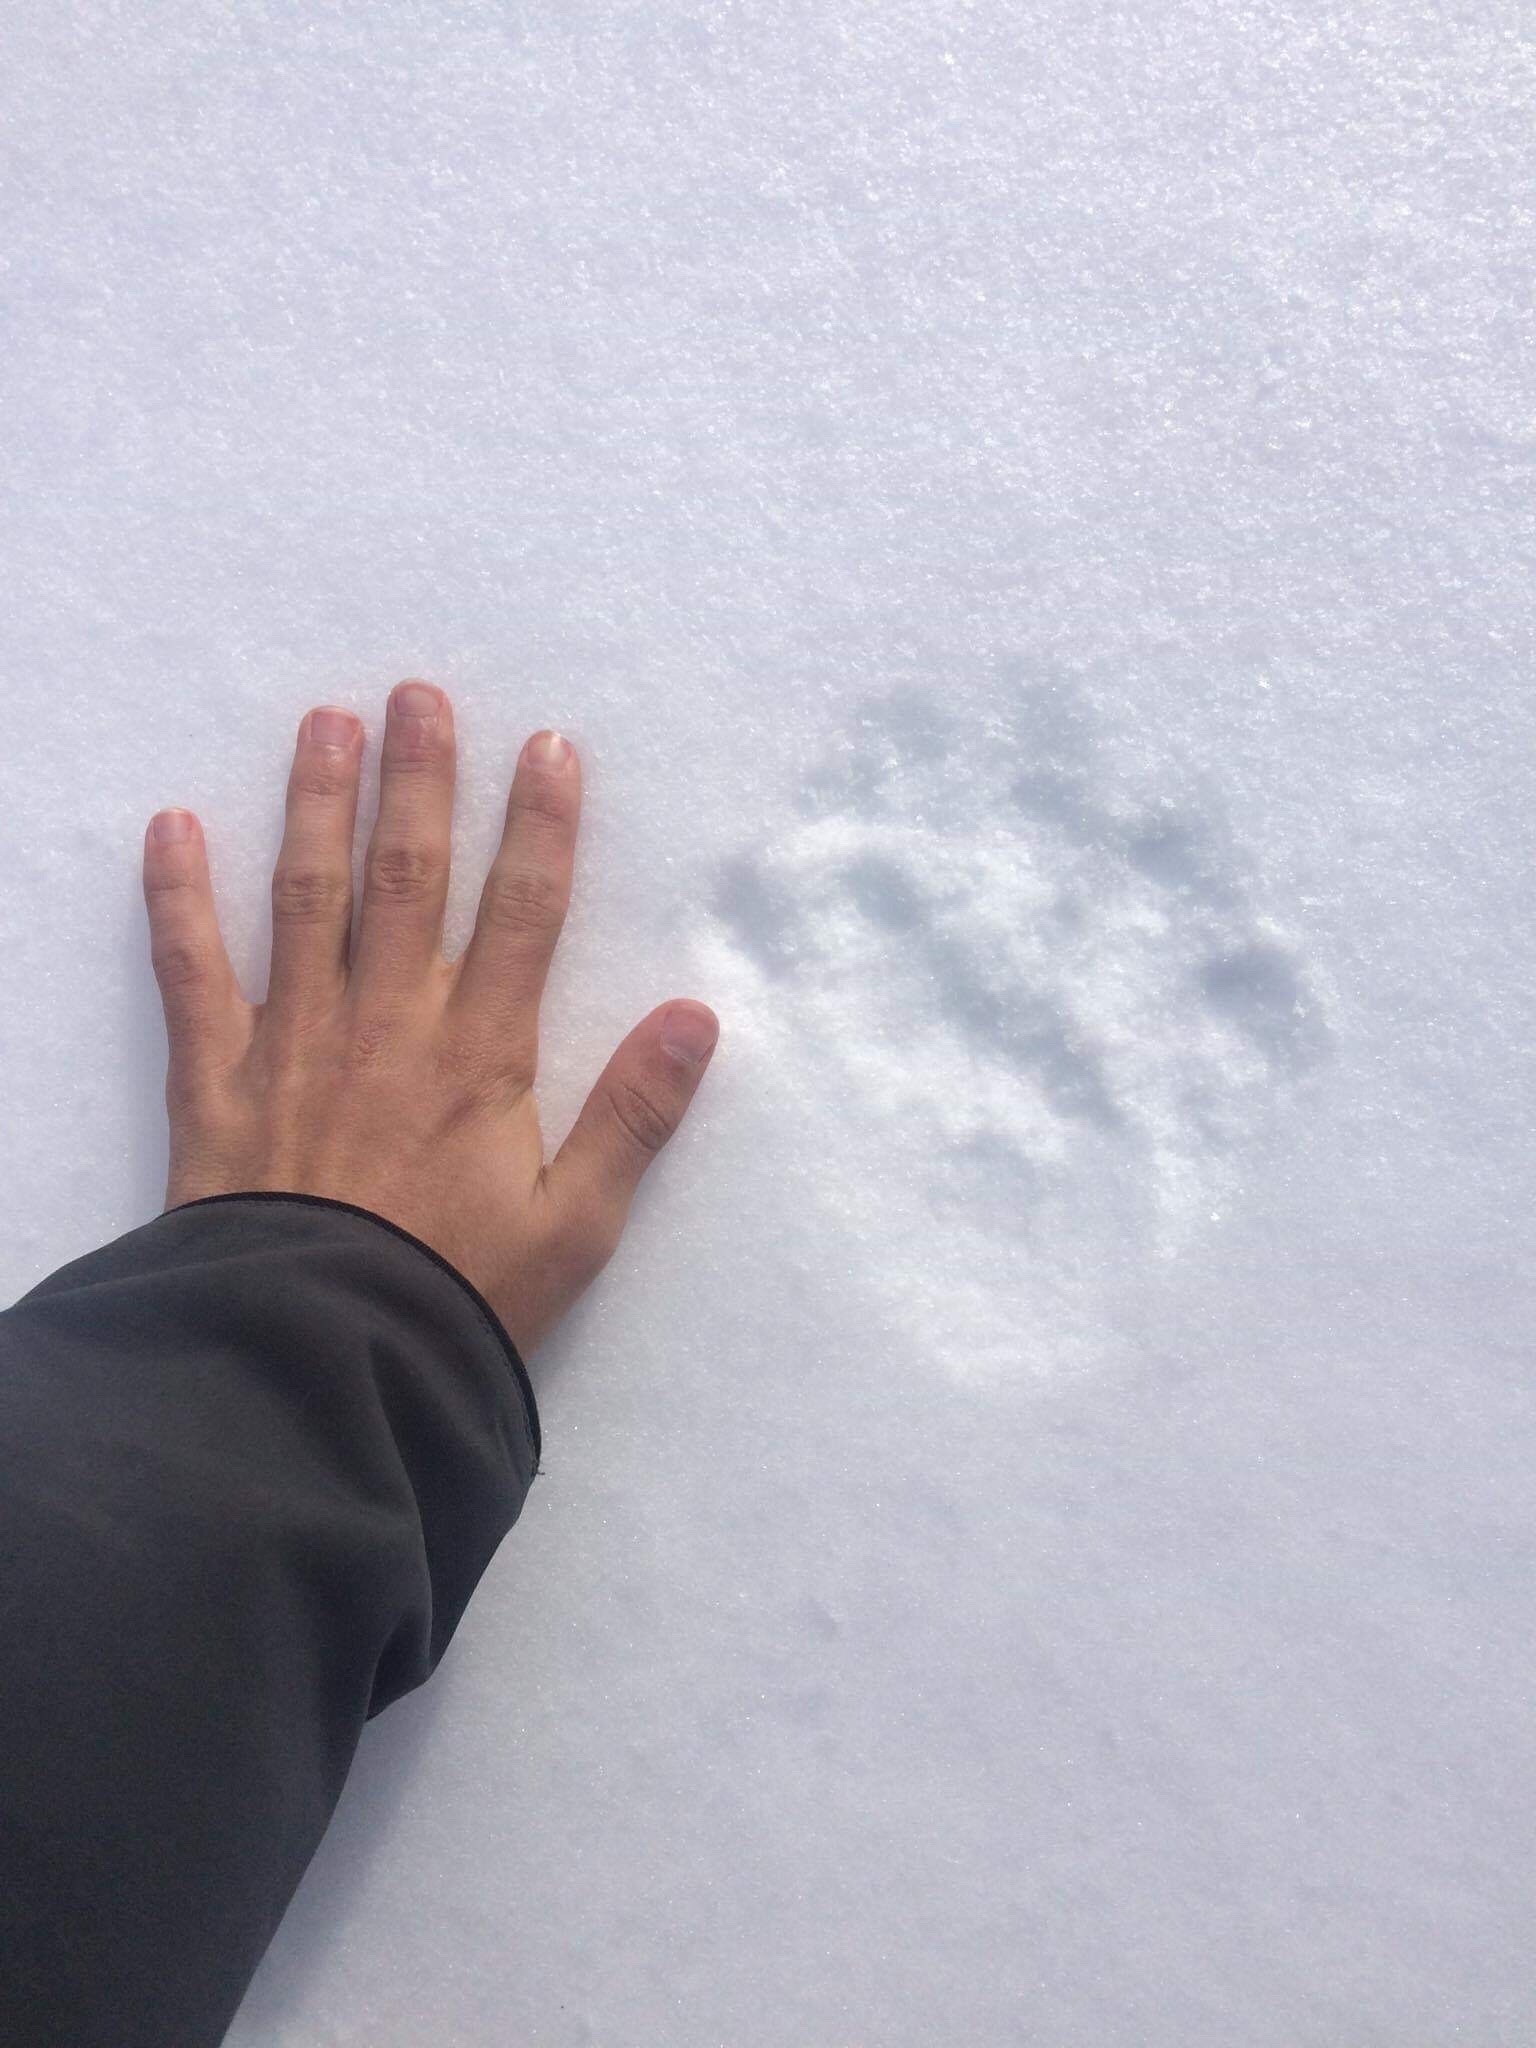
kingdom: Animalia
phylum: Chordata
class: Mammalia
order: Carnivora
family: Felidae
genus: Lynx
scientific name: Lynx canadensis
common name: Canadian lynx
